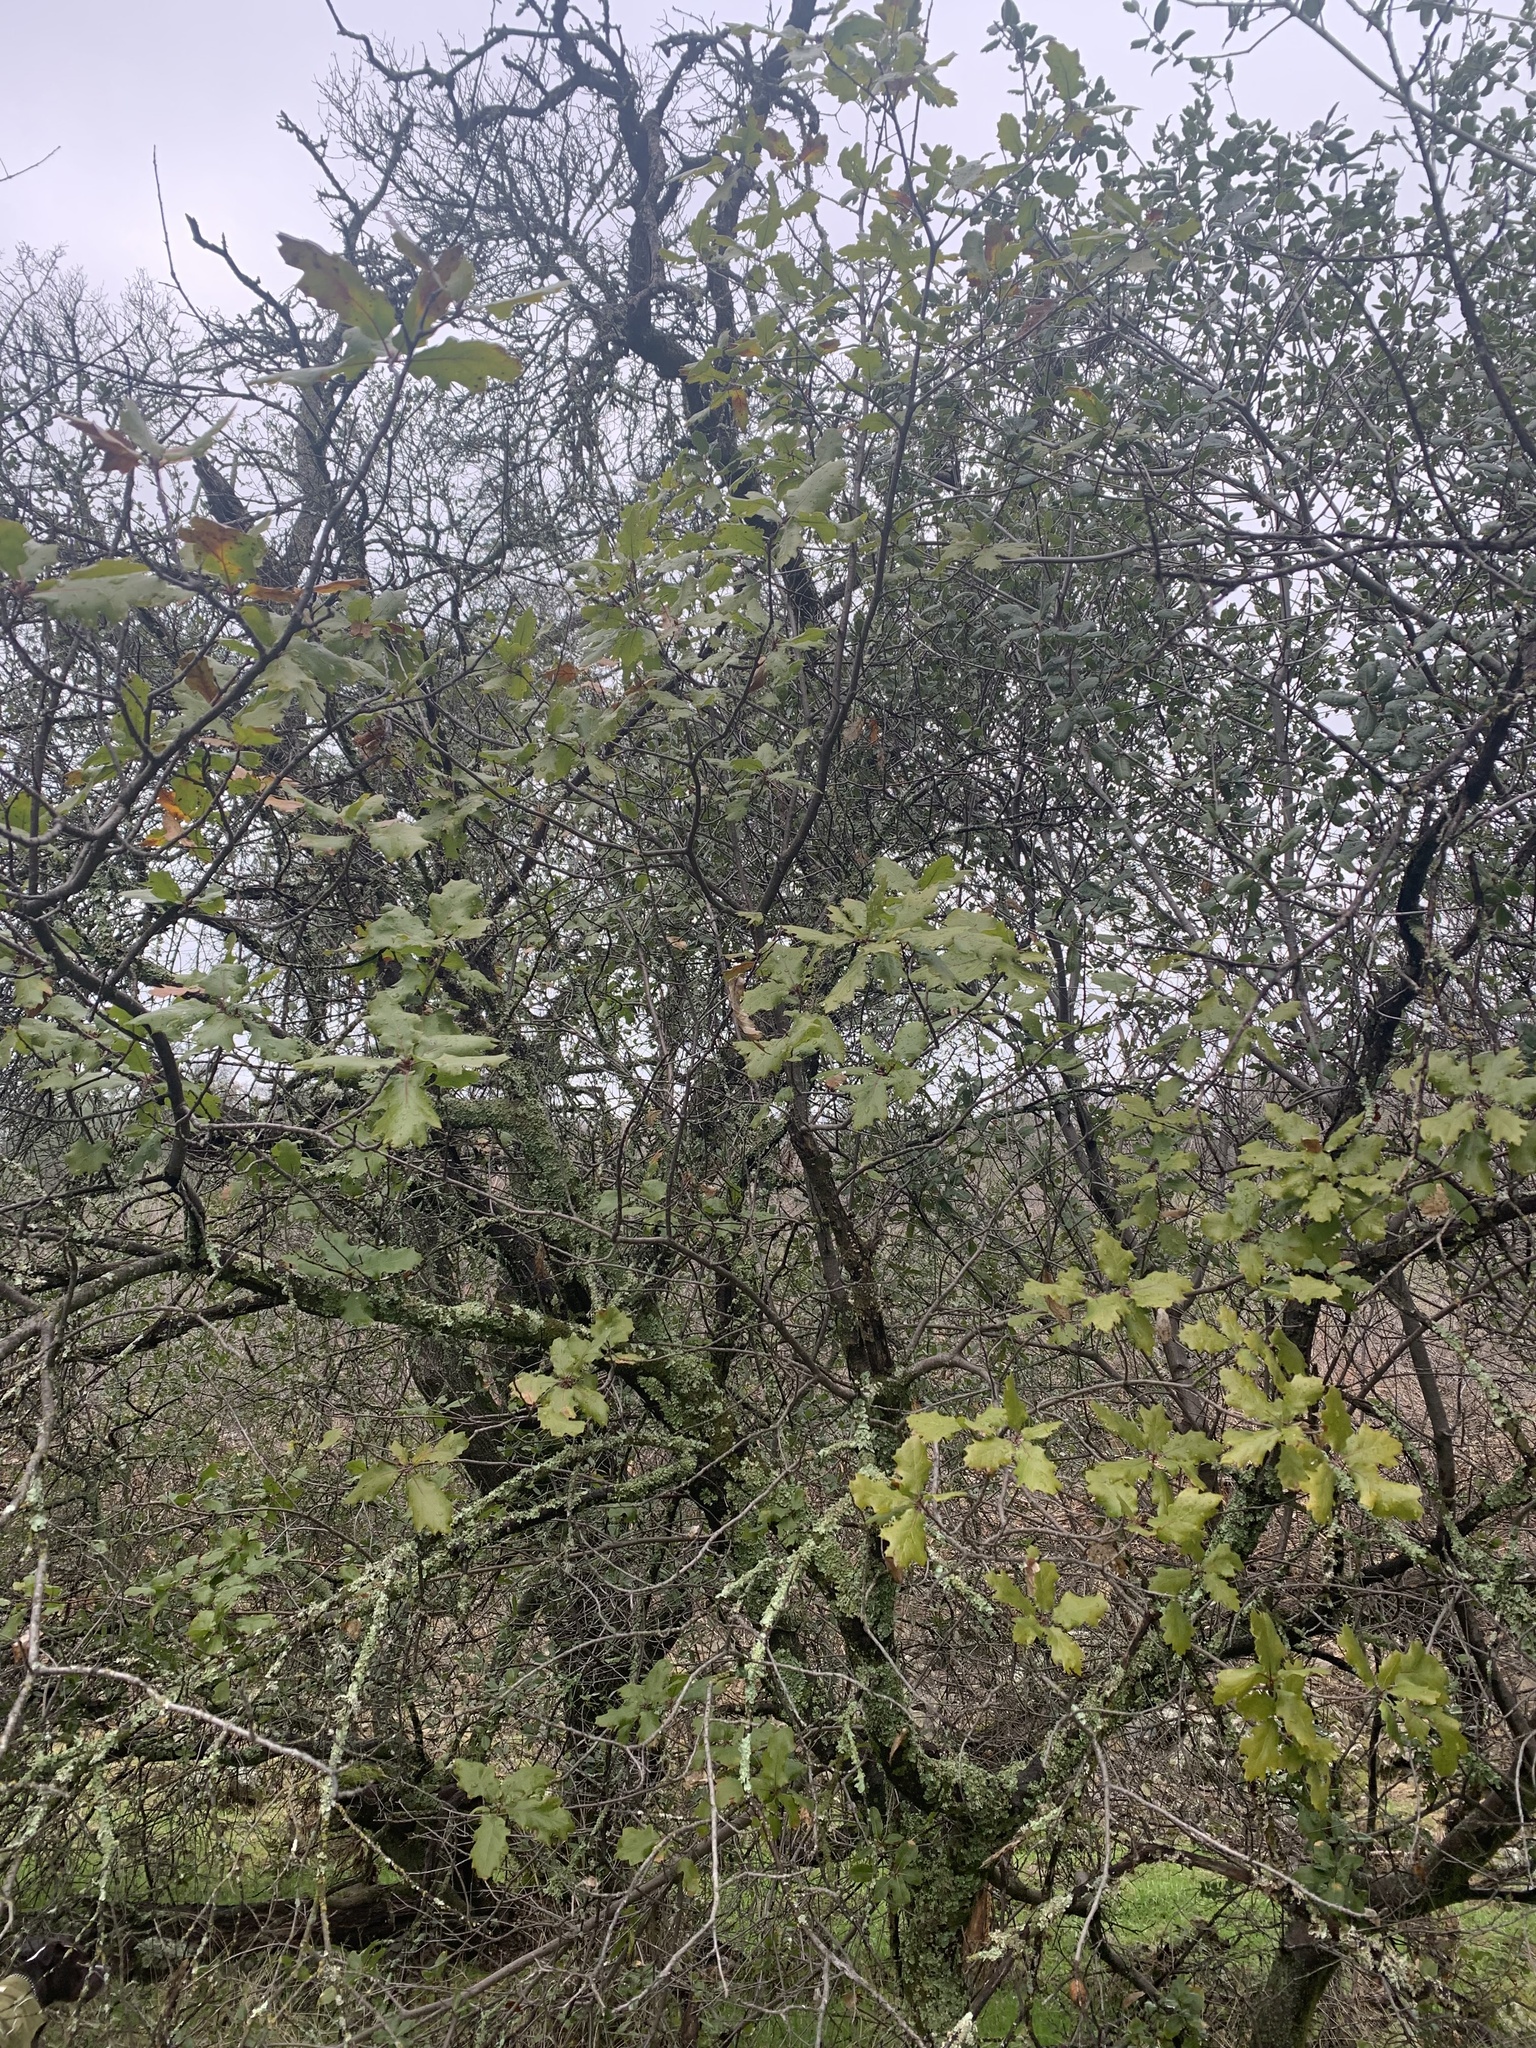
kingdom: Plantae
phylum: Tracheophyta
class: Magnoliopsida
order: Fagales
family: Fagaceae
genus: Quercus
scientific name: Quercus morehus
